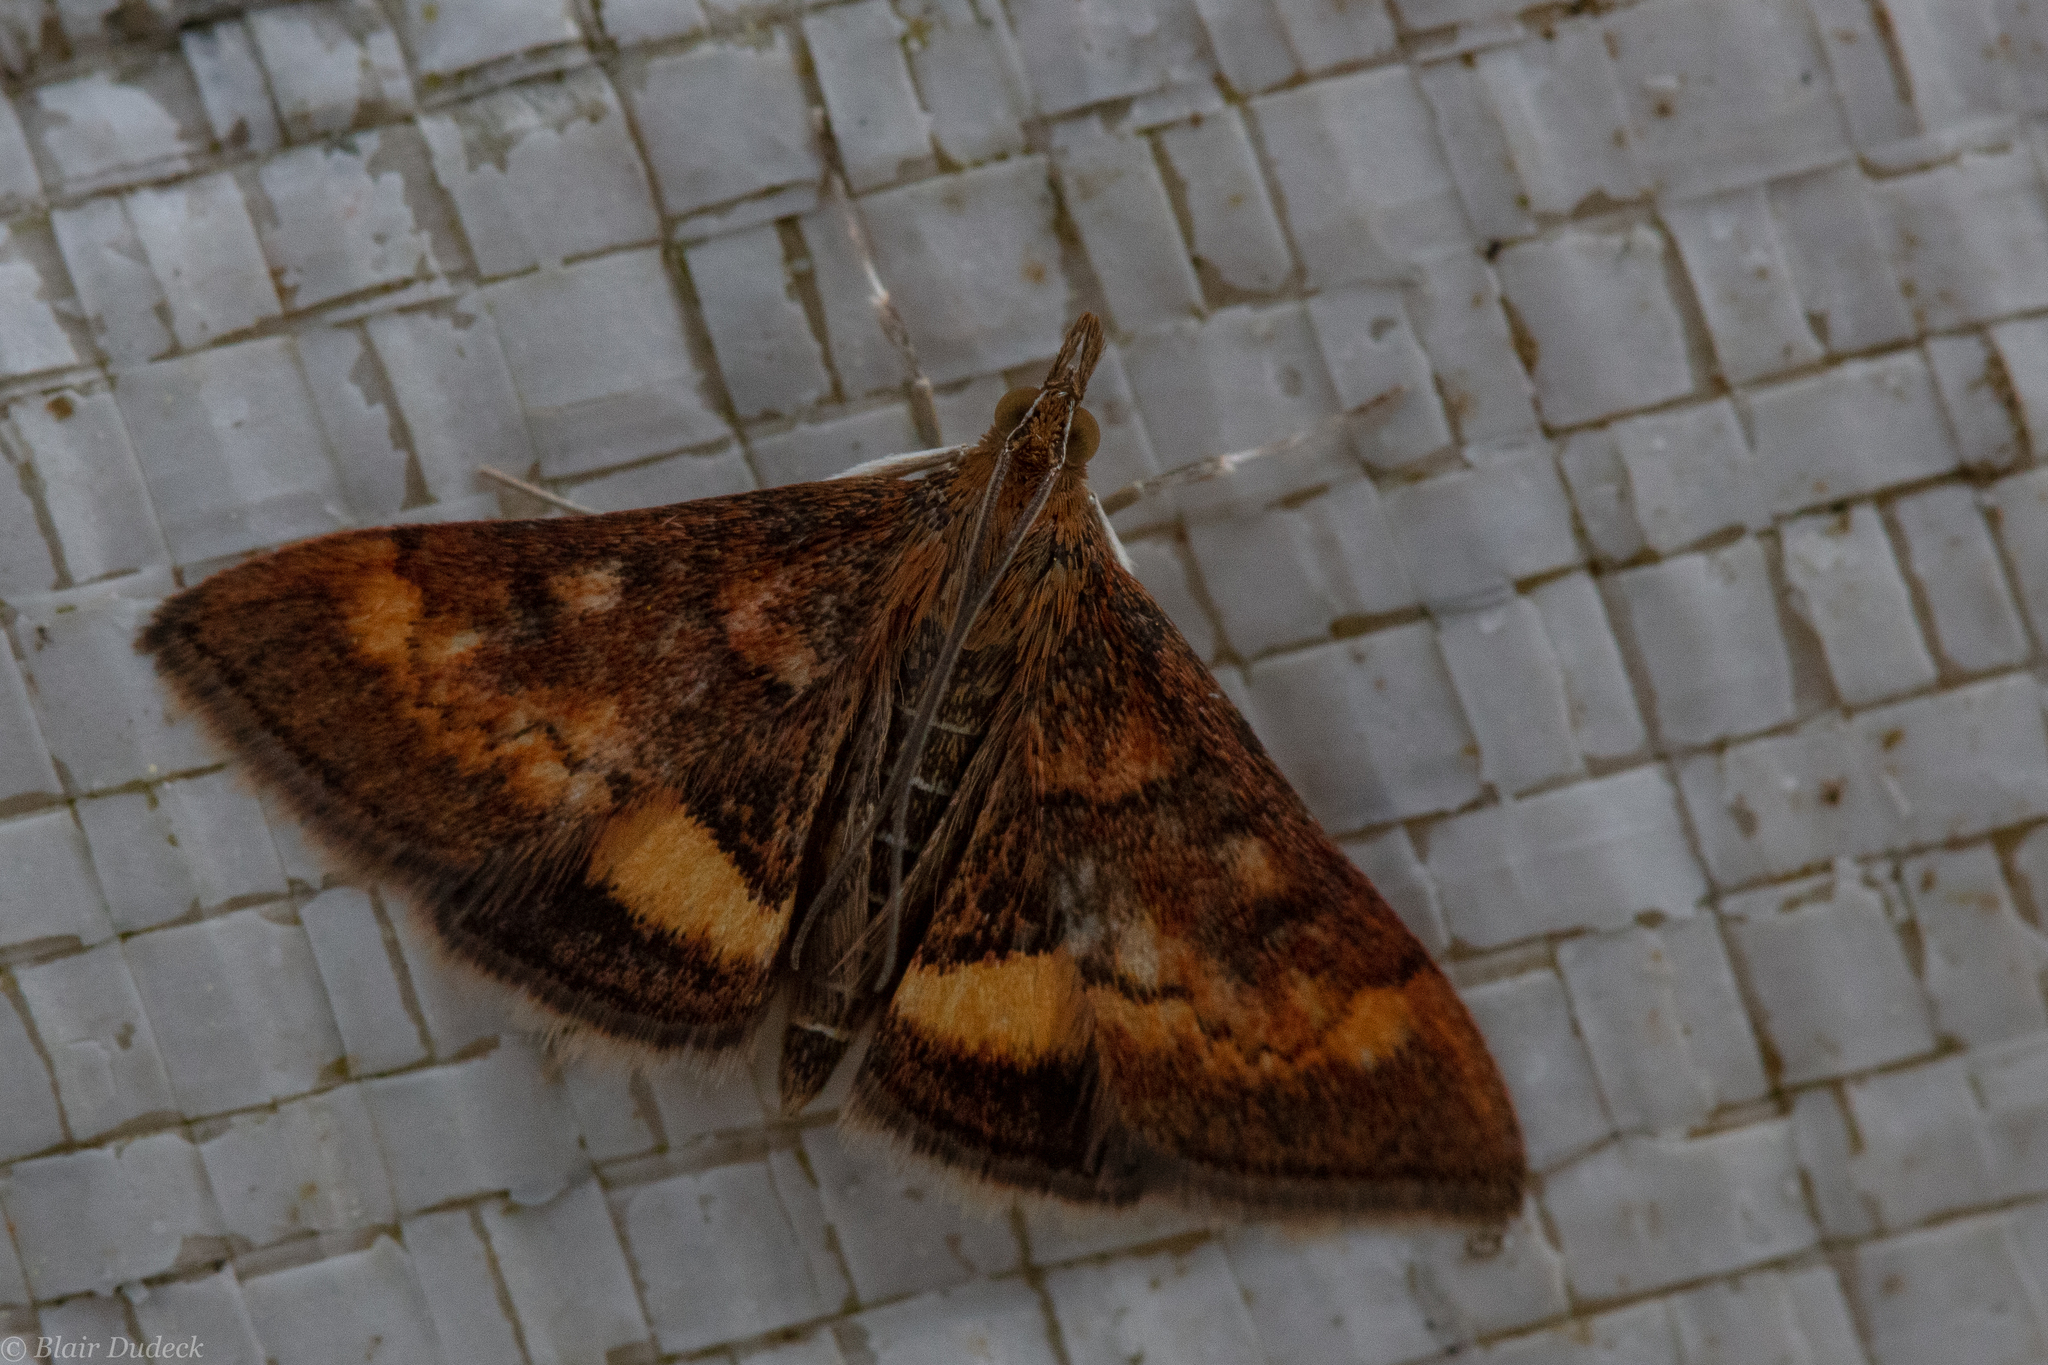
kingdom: Animalia
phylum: Arthropoda
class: Insecta
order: Lepidoptera
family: Crambidae
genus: Pyrausta
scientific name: Pyrausta californicalis
